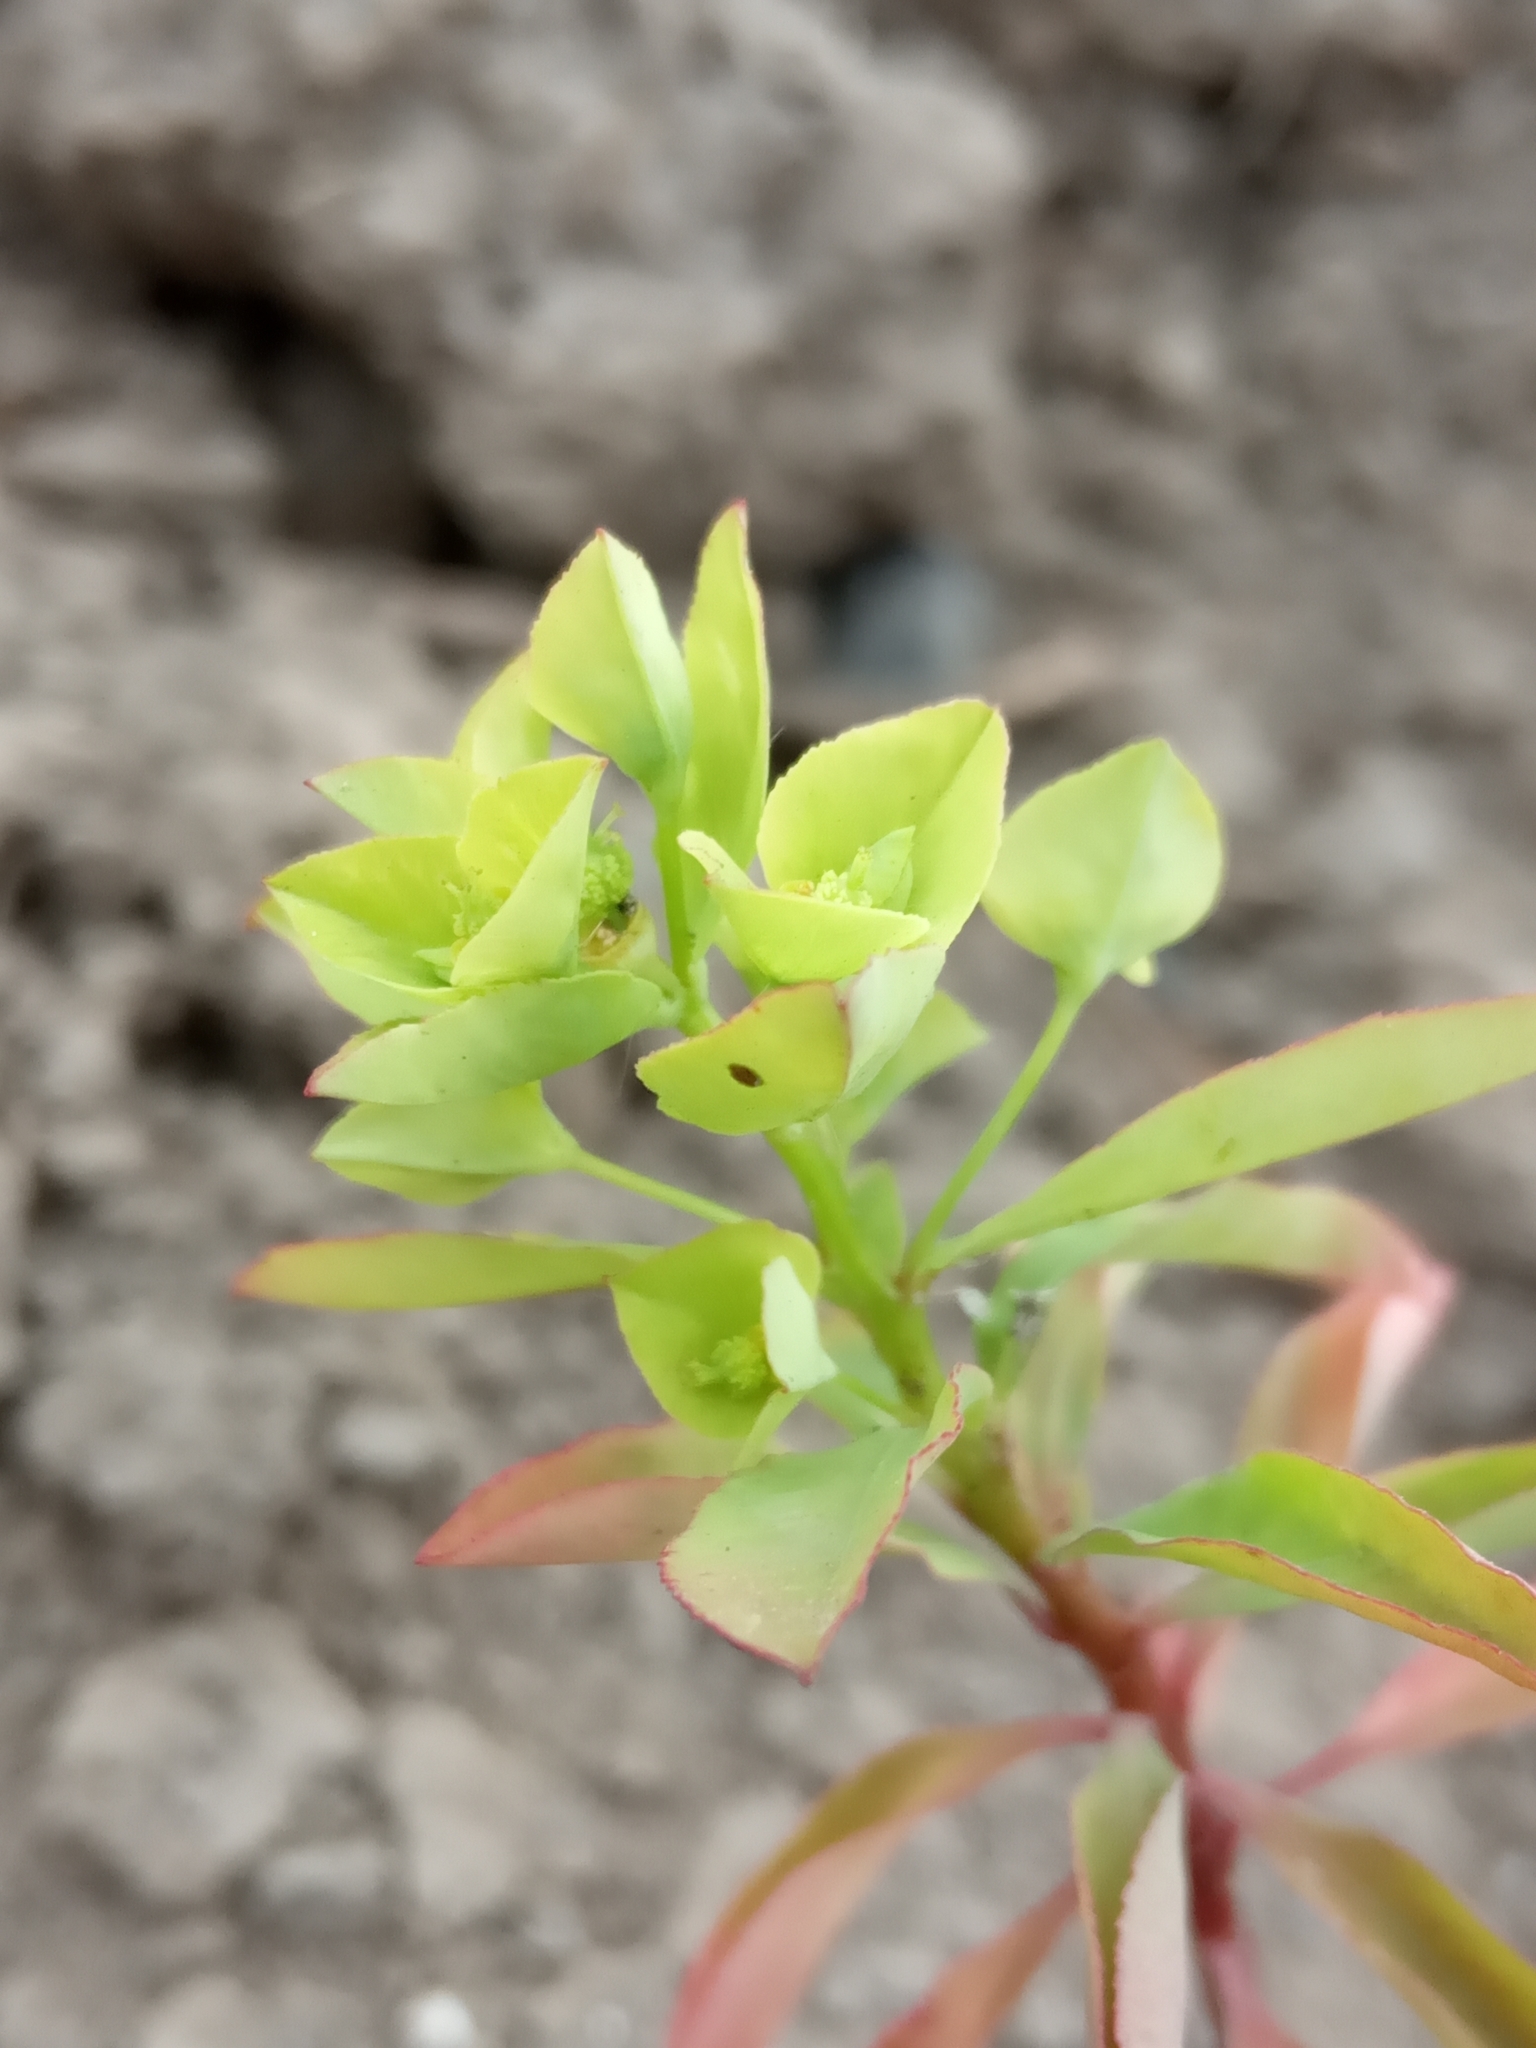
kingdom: Plantae
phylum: Tracheophyta
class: Magnoliopsida
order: Malpighiales
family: Euphorbiaceae
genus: Euphorbia
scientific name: Euphorbia stricta
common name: Upright spurge
